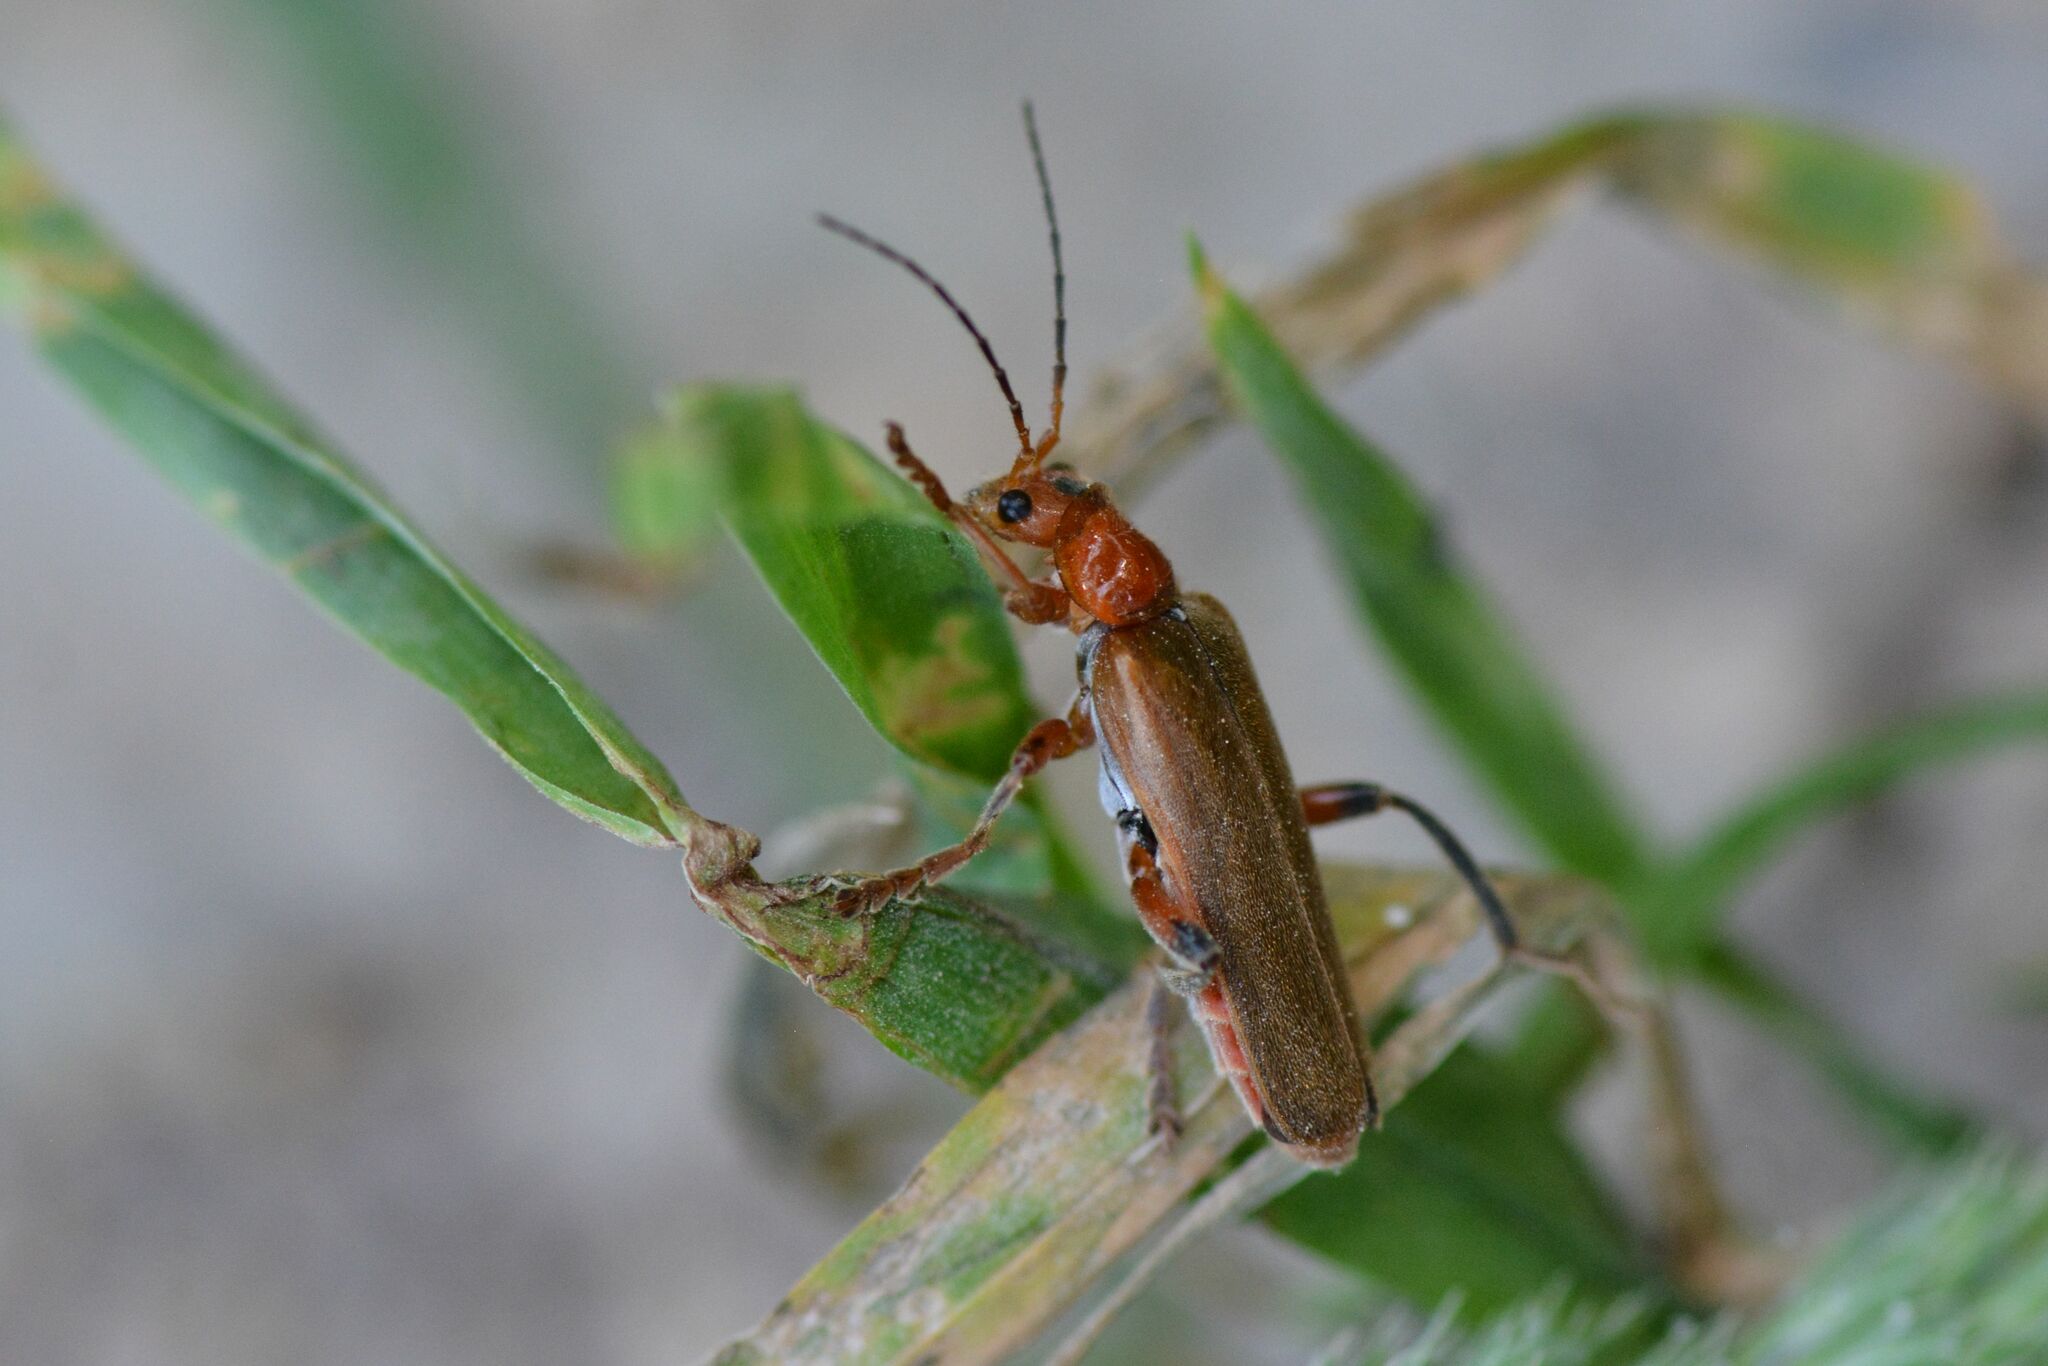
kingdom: Animalia
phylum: Arthropoda
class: Insecta
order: Coleoptera
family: Cantharidae
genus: Cantharis
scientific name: Cantharis livida
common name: Livid soldier beetle
